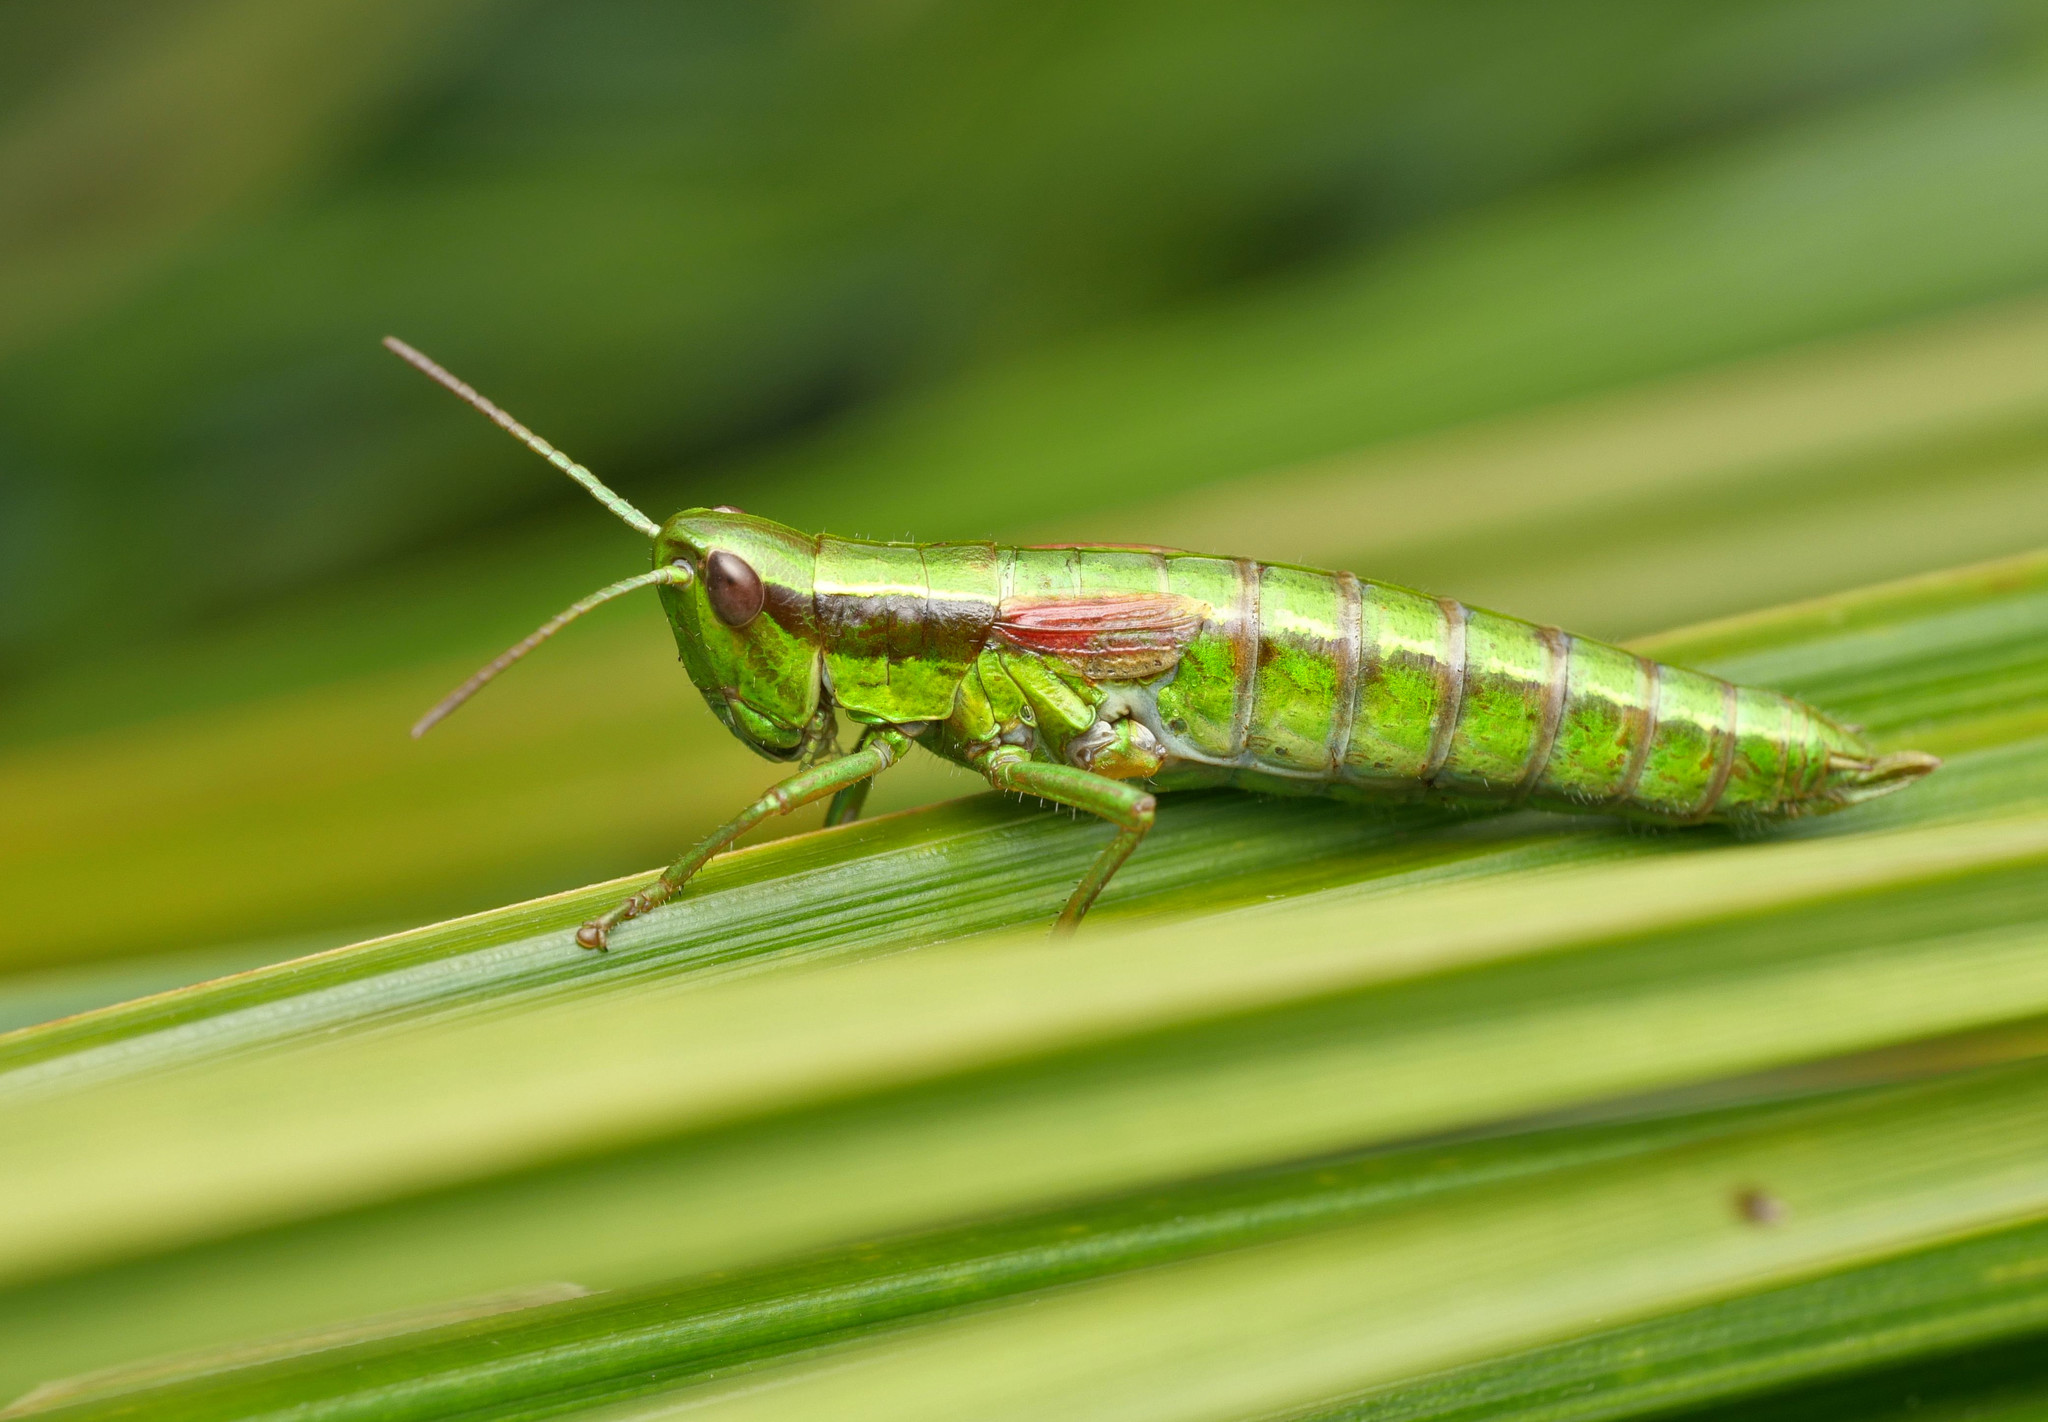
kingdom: Animalia
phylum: Arthropoda
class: Insecta
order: Orthoptera
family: Acrididae
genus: Euthystira
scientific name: Euthystira brachyptera
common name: Small gold grasshopper
